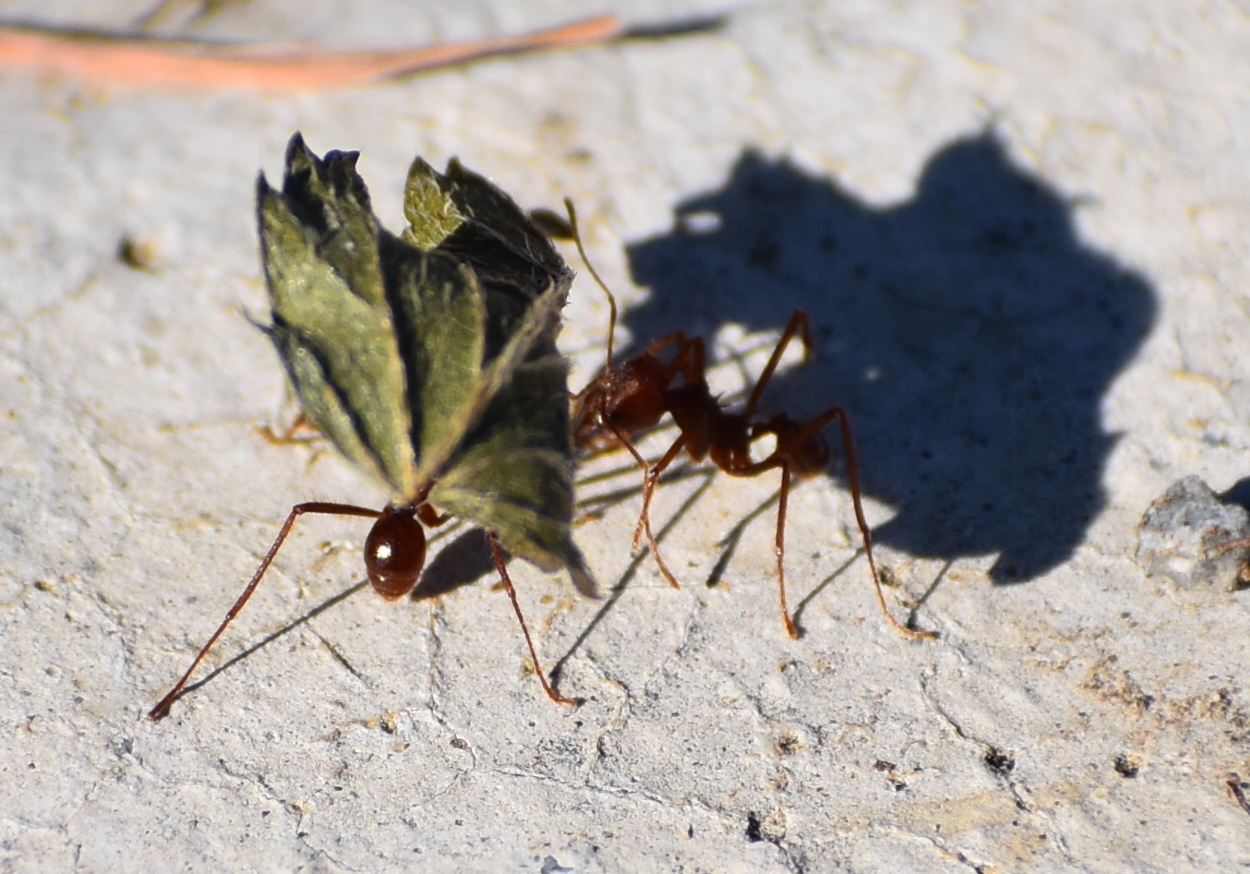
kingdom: Animalia
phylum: Arthropoda
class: Insecta
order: Hymenoptera
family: Formicidae
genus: Atta
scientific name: Atta mexicana
